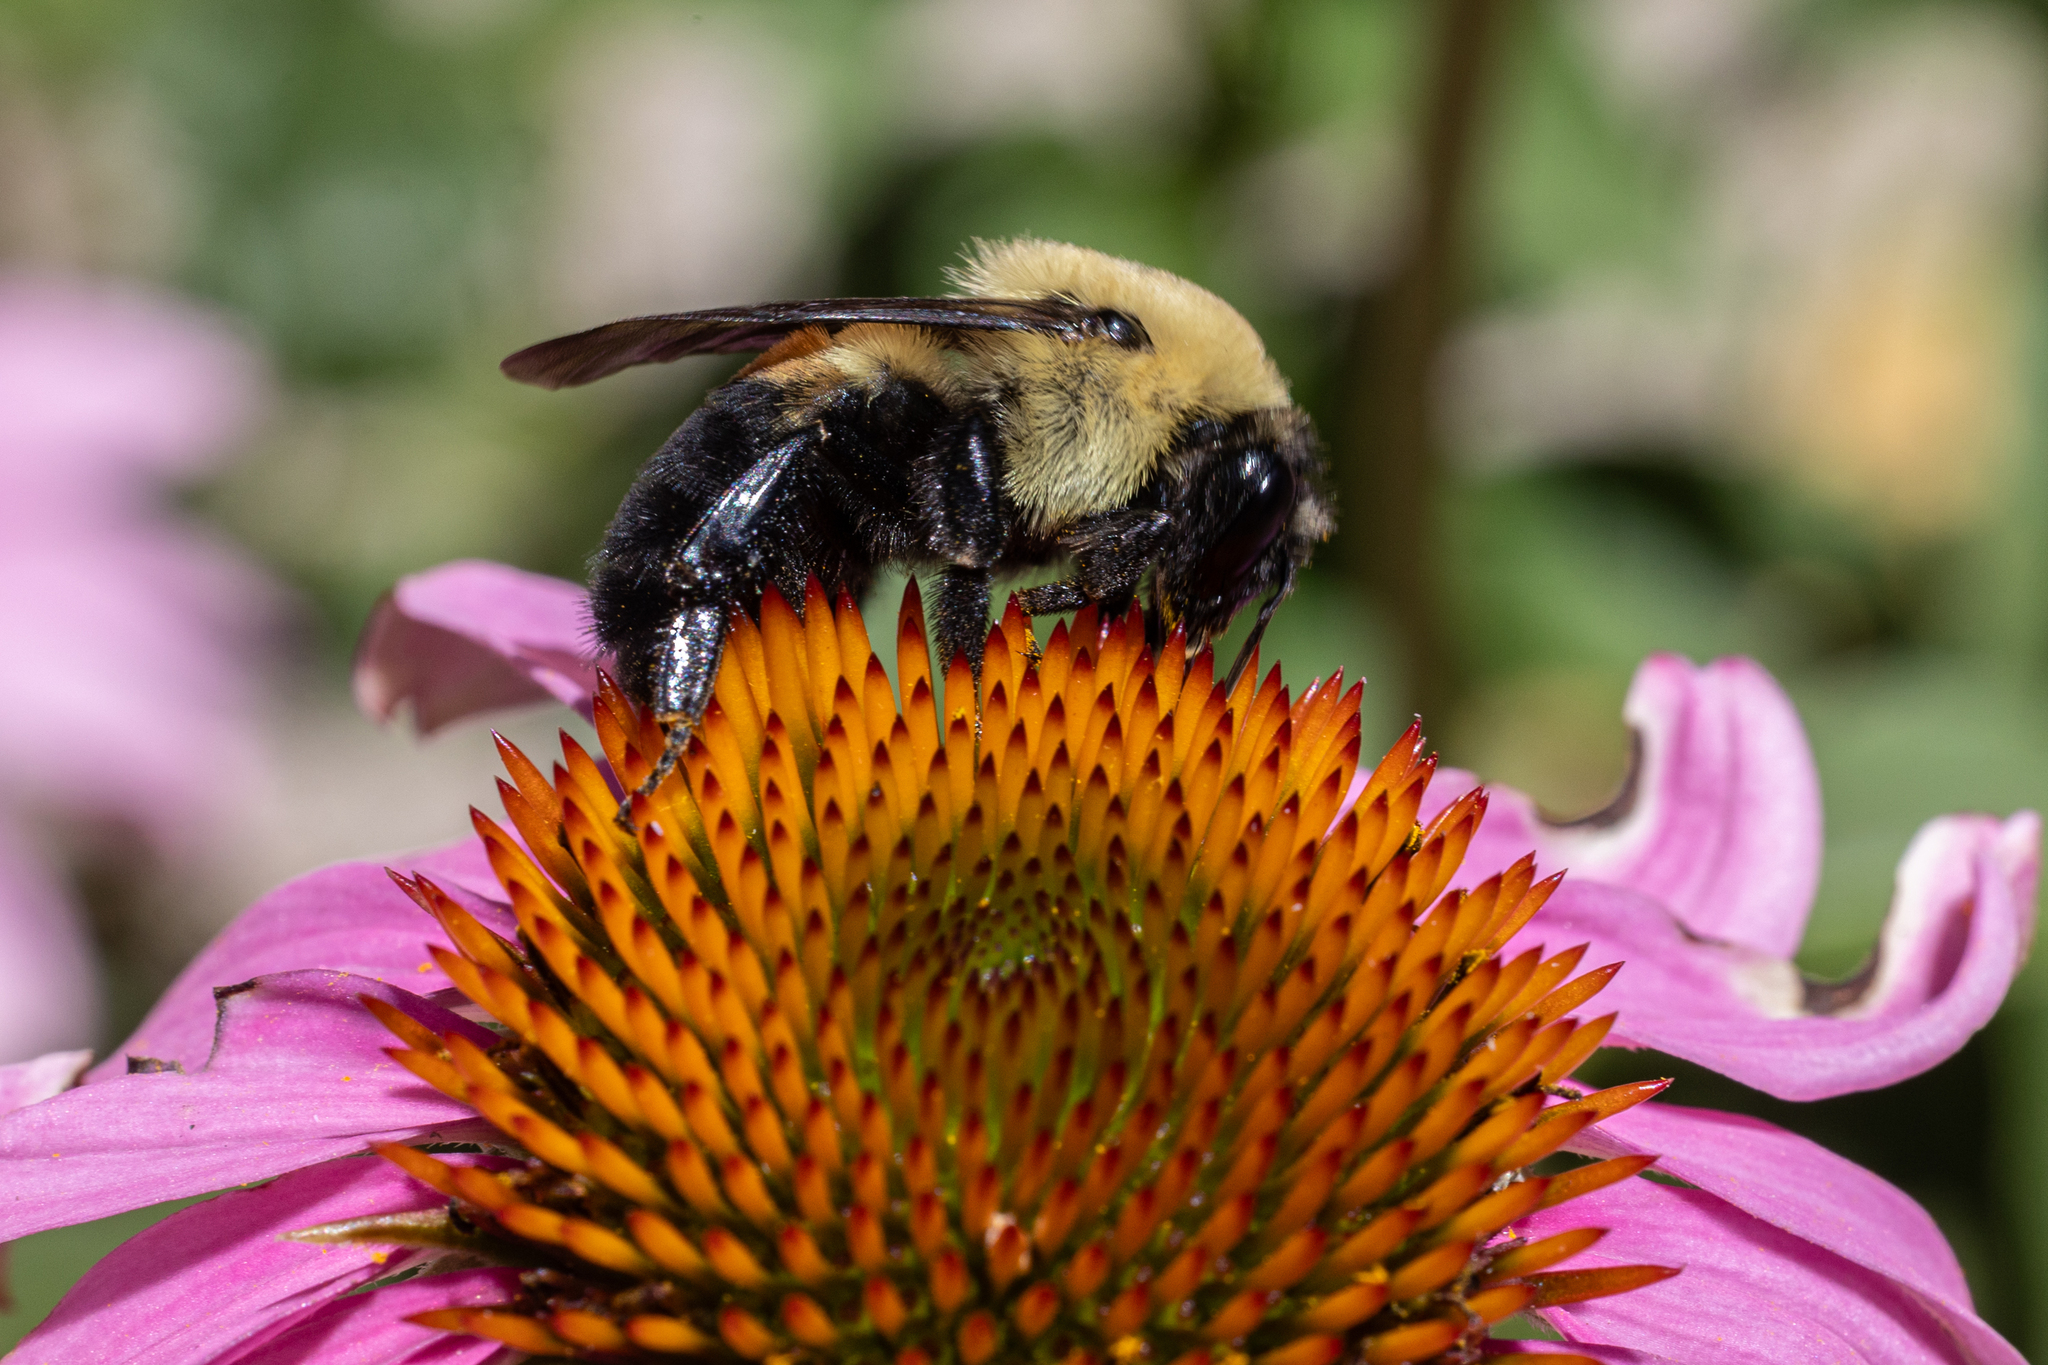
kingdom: Animalia
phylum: Arthropoda
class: Insecta
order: Hymenoptera
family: Apidae
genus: Bombus
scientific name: Bombus griseocollis
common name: Brown-belted bumble bee
